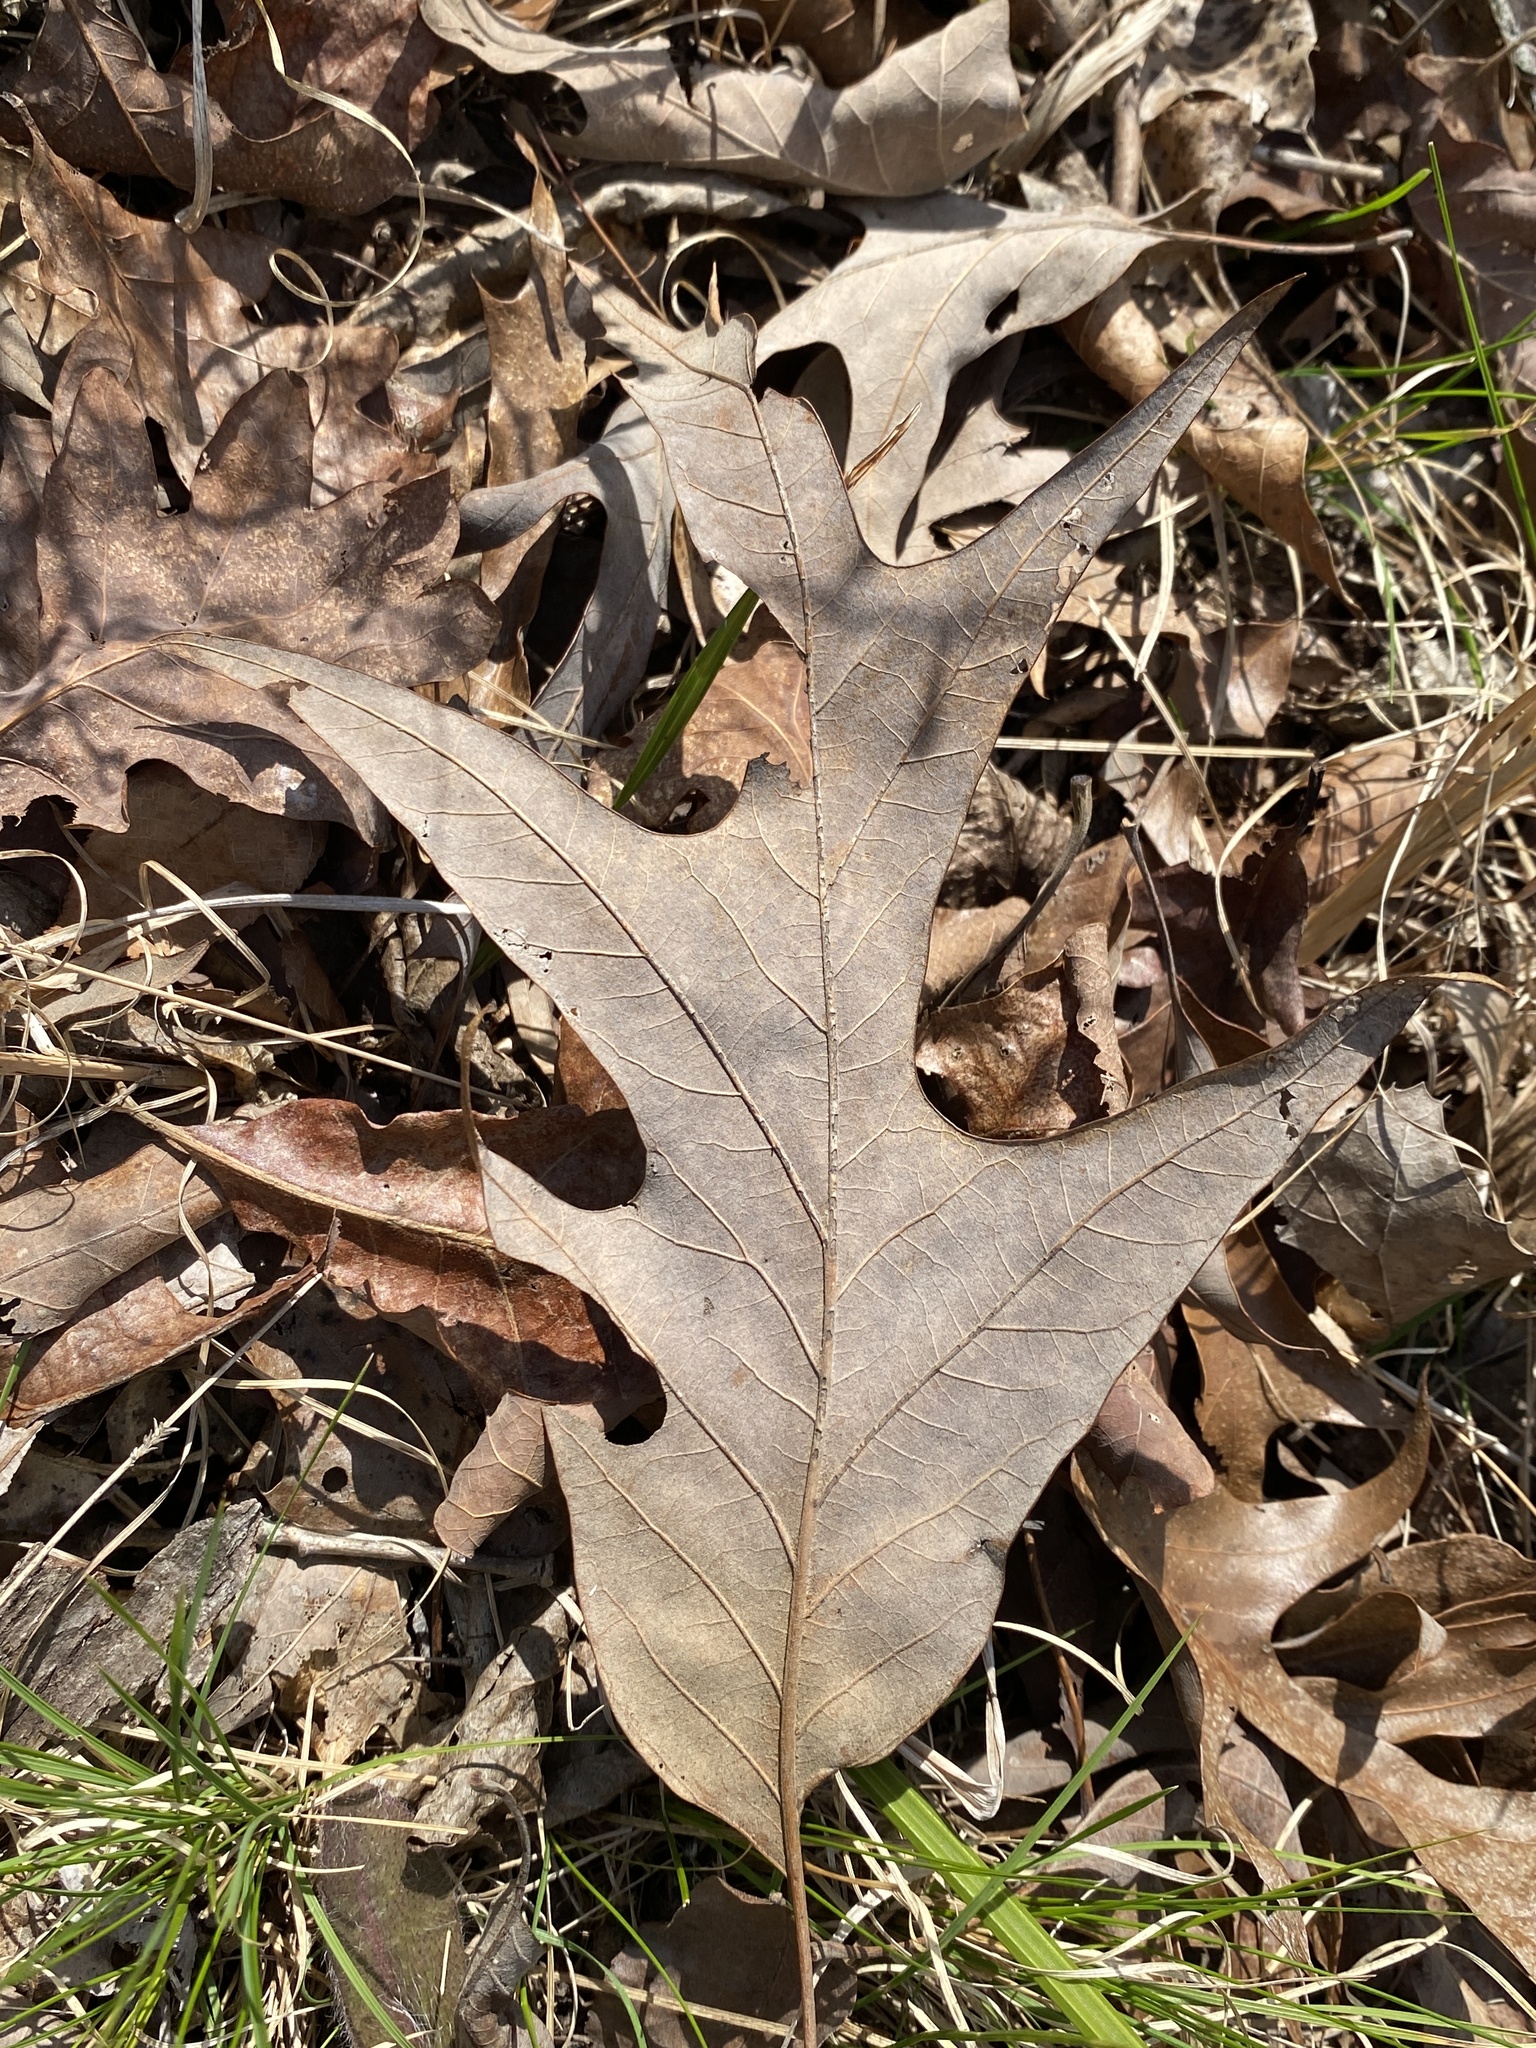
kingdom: Plantae
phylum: Tracheophyta
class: Magnoliopsida
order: Fagales
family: Fagaceae
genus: Quercus
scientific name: Quercus falcata
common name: Southern red oak
